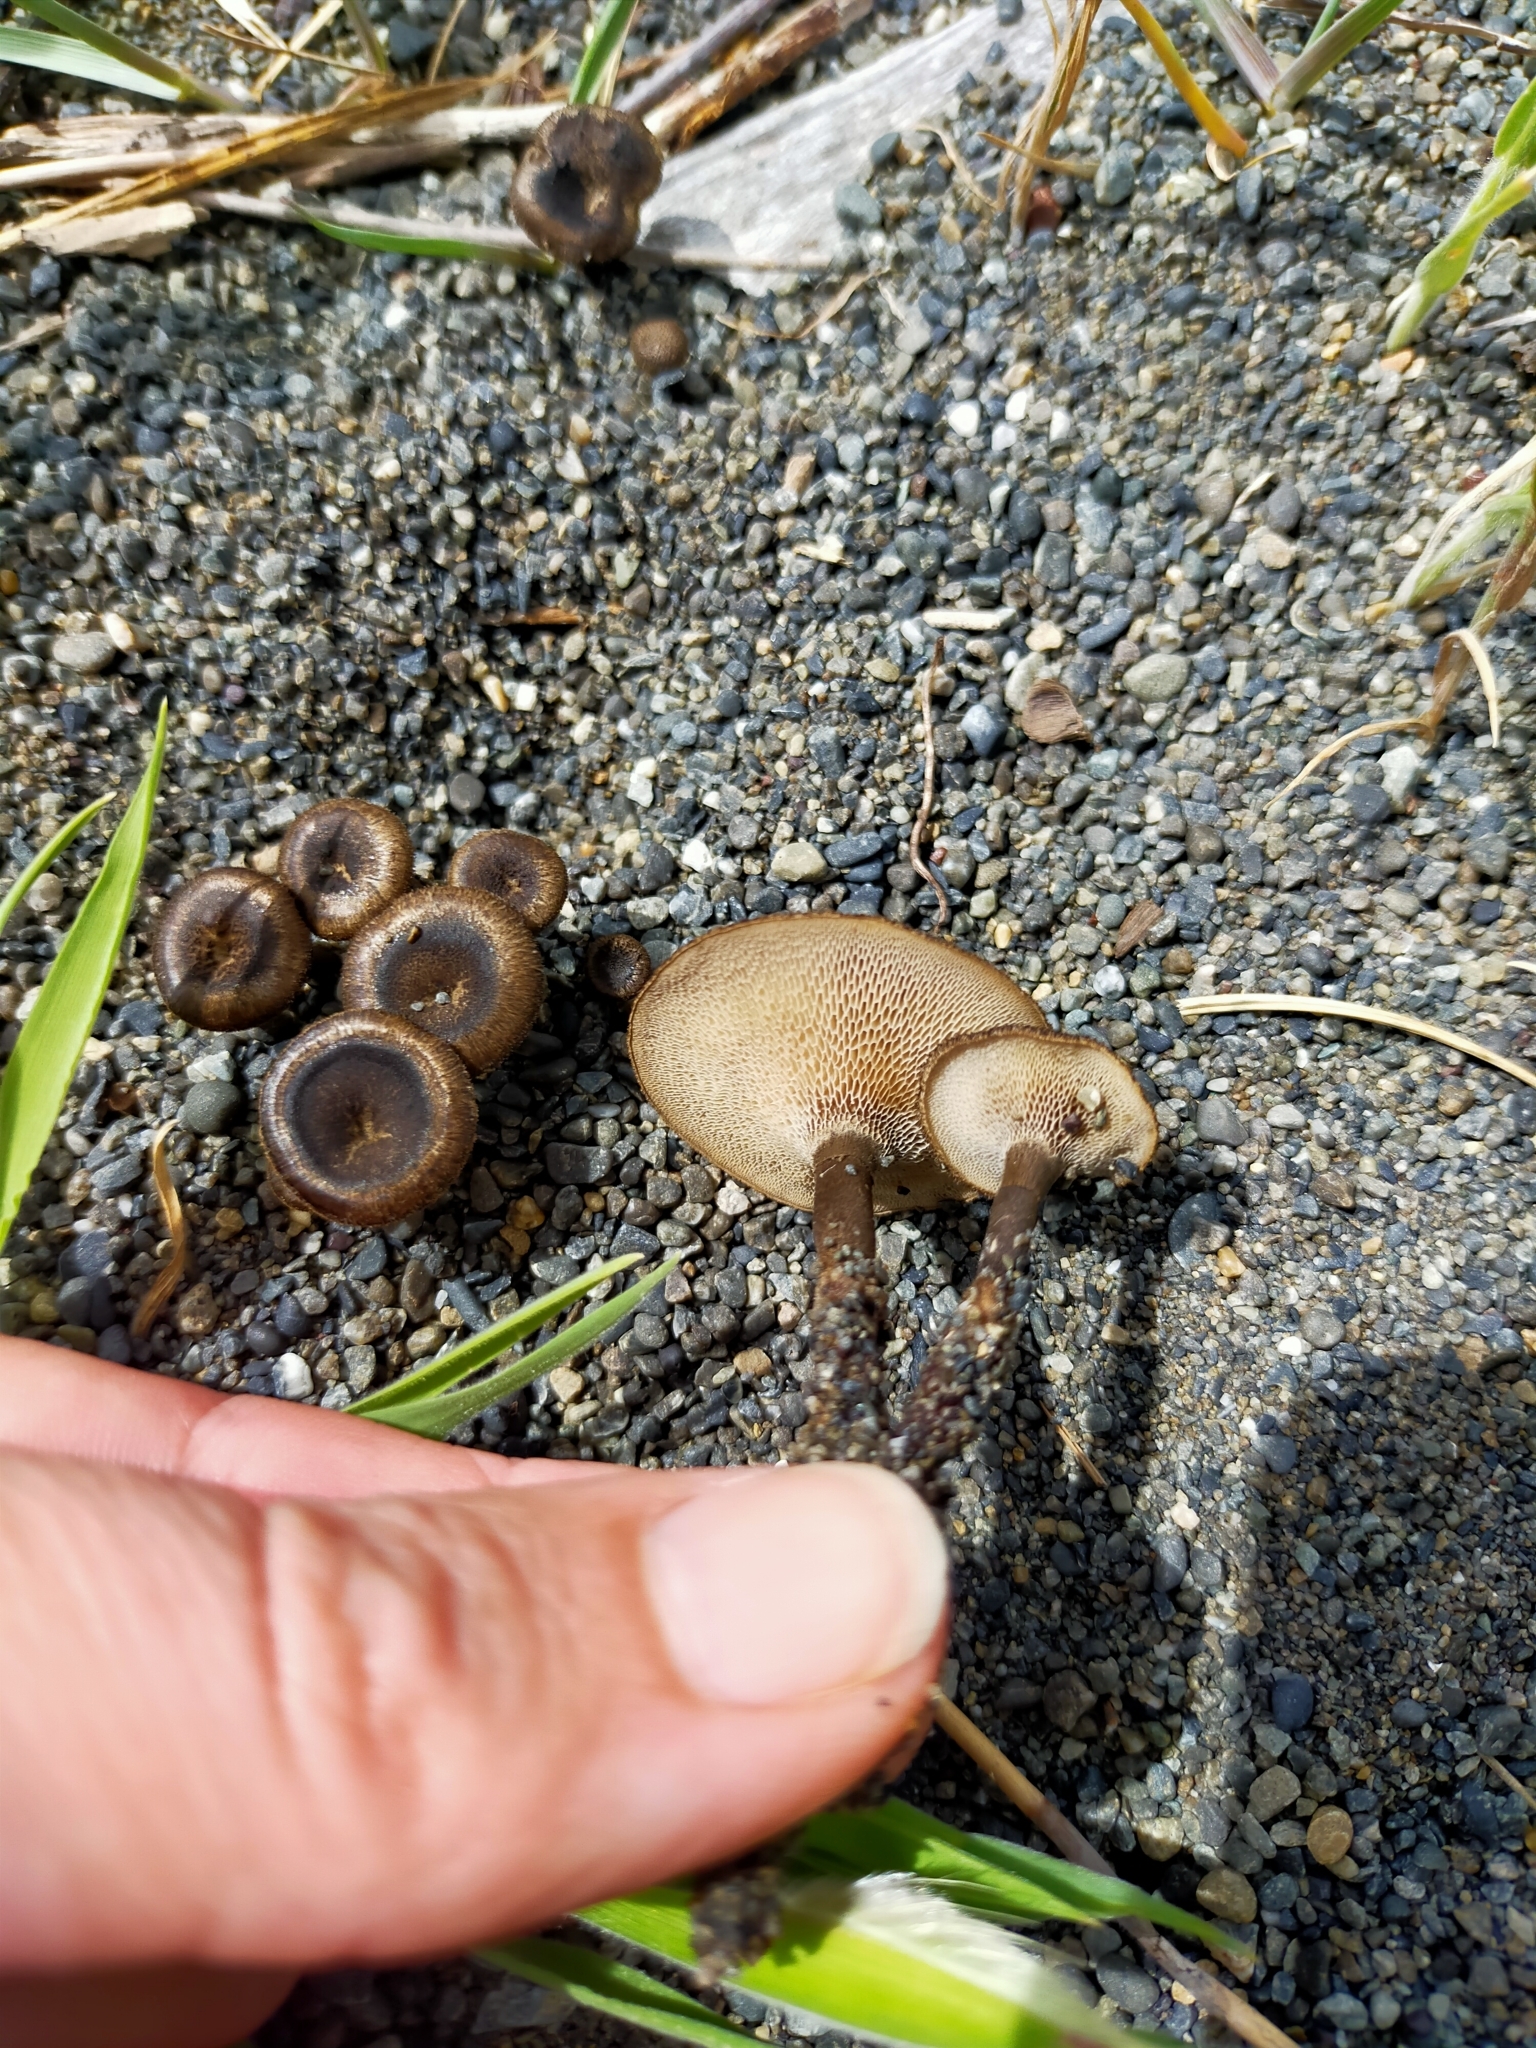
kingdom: Fungi
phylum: Basidiomycota
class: Agaricomycetes
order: Polyporales
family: Polyporaceae
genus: Lentinus
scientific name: Lentinus arcularius
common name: Spring polypore
